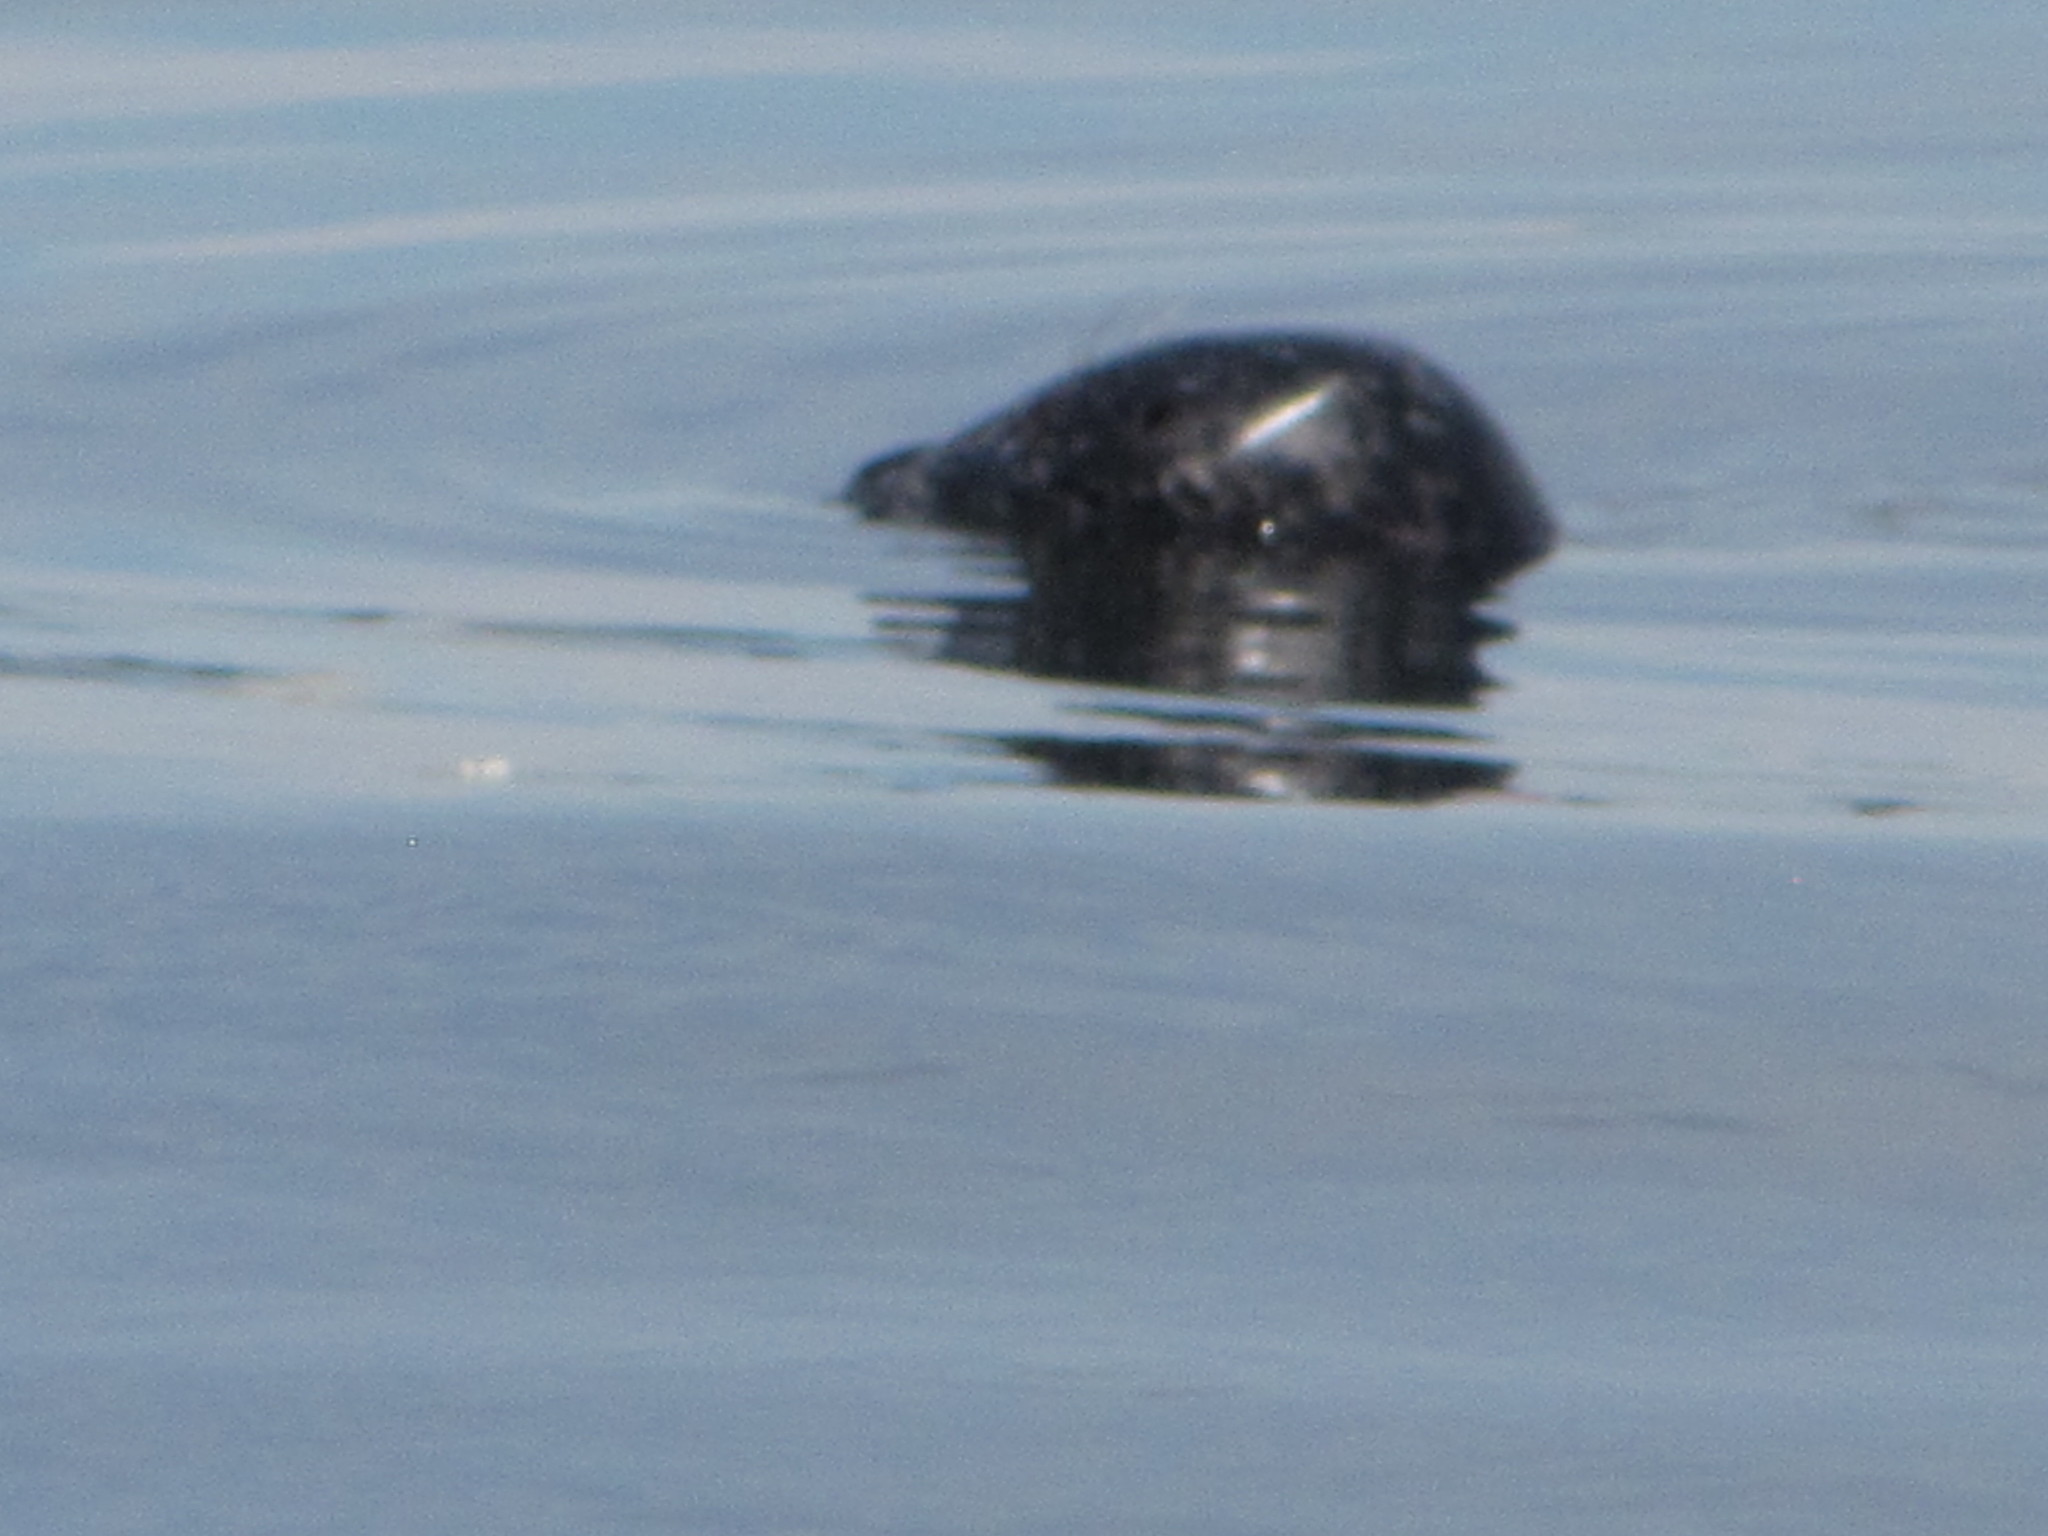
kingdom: Animalia
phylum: Chordata
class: Mammalia
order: Carnivora
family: Phocidae
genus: Phoca
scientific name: Phoca vitulina
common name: Harbor seal
